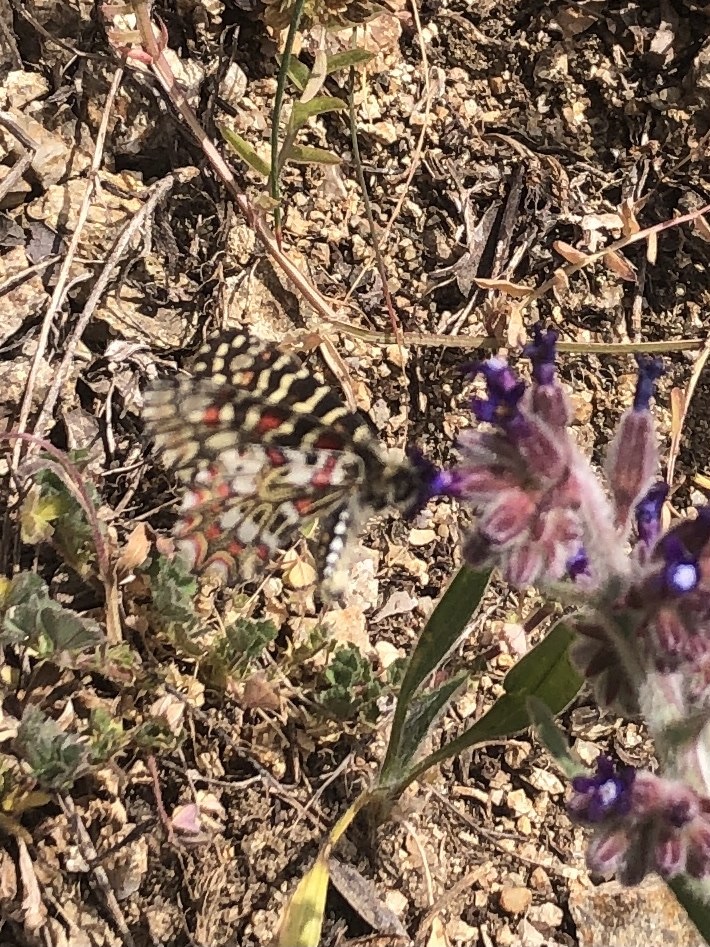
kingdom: Animalia
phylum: Arthropoda
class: Insecta
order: Lepidoptera
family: Papilionidae
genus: Zerynthia
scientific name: Zerynthia rumina
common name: Spanish festoon
